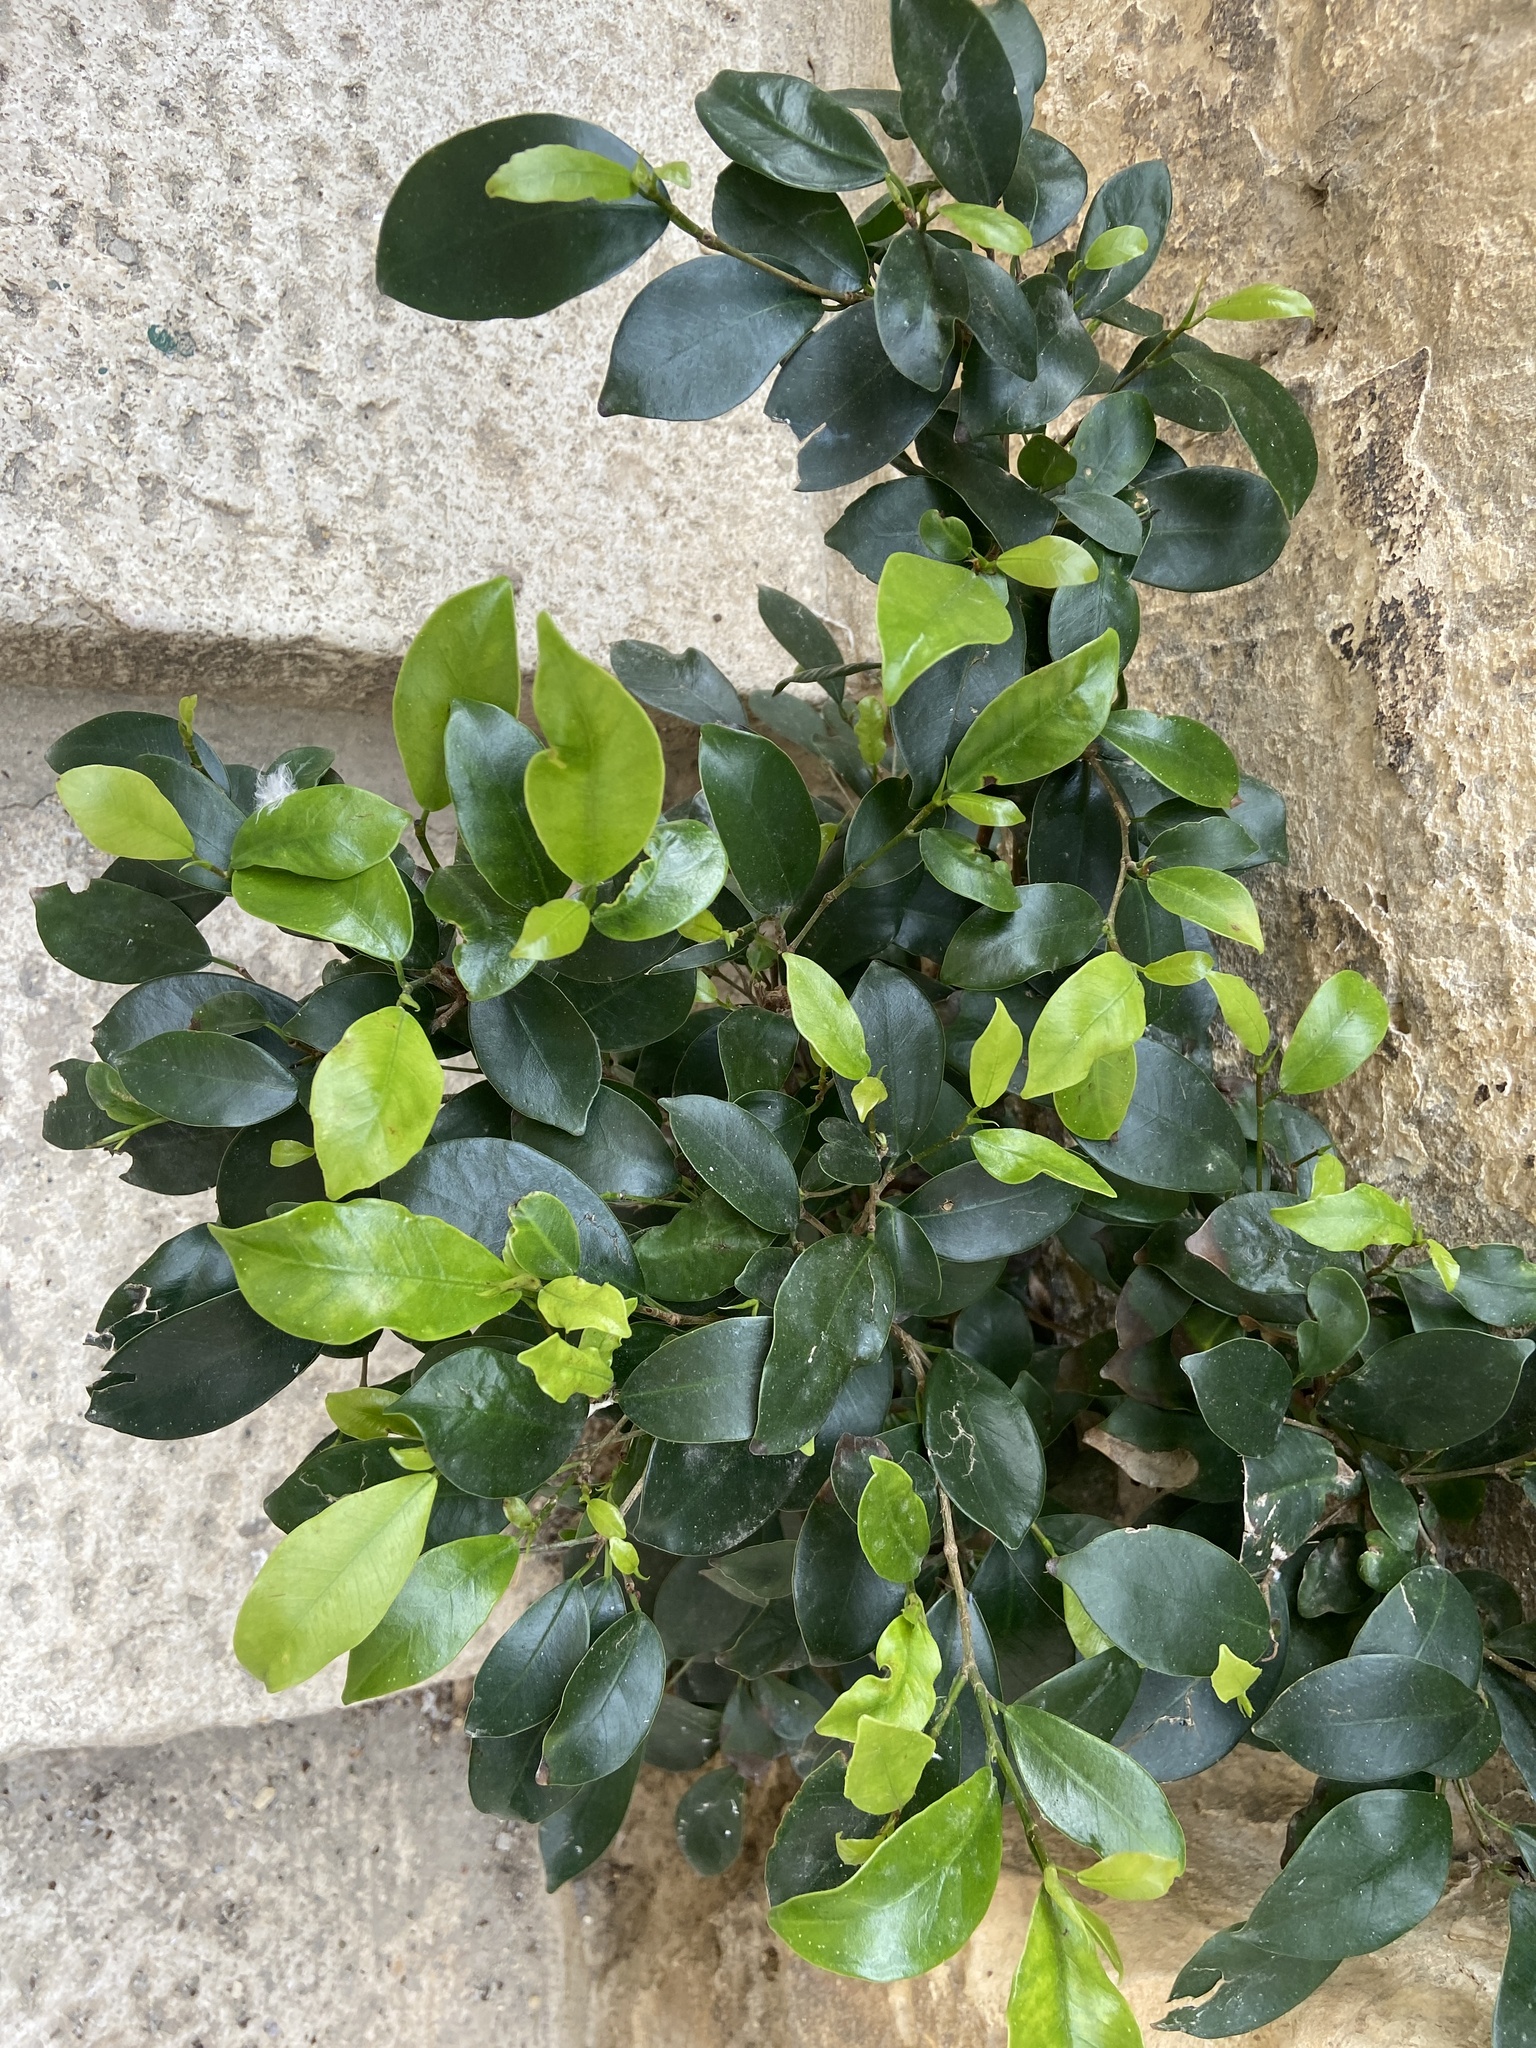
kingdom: Plantae
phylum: Tracheophyta
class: Magnoliopsida
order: Rosales
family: Moraceae
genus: Ficus
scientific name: Ficus microcarpa
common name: Chinese banyan
